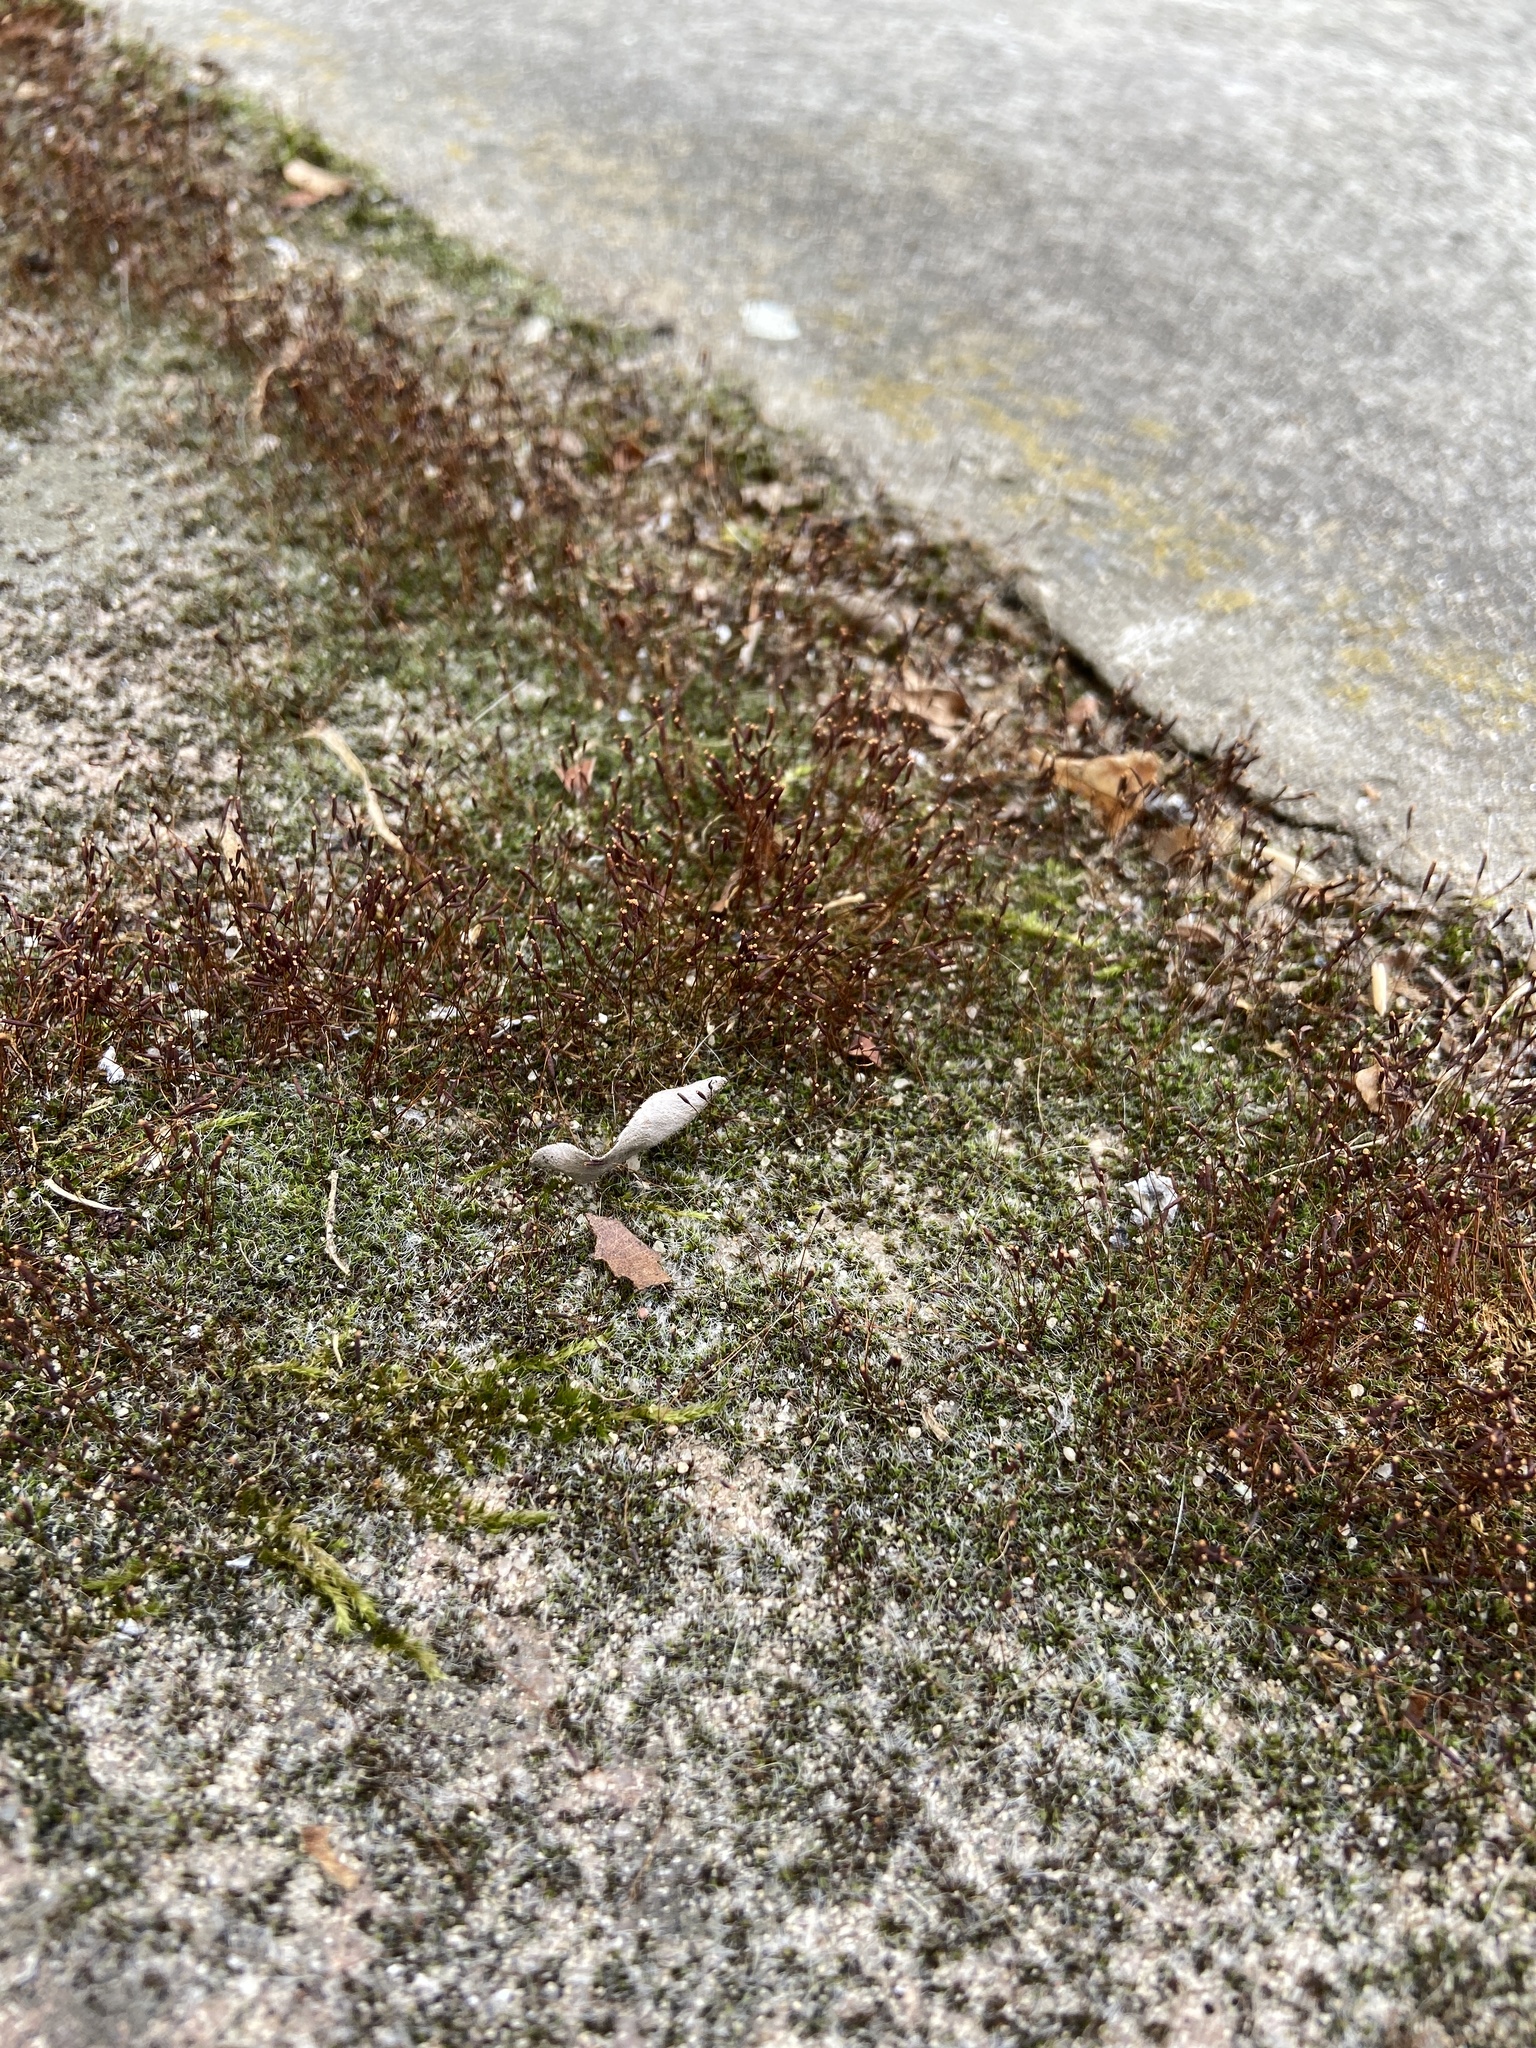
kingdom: Plantae
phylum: Bryophyta
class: Bryopsida
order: Pottiales
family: Pottiaceae
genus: Tortula
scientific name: Tortula muralis
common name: Wall screw-moss
